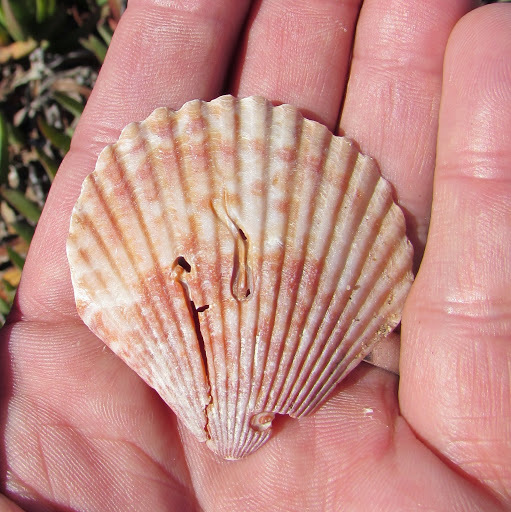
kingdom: Animalia
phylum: Mollusca
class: Bivalvia
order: Pectinida
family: Pectinidae
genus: Argopecten
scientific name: Argopecten ventricosus
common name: Catarina scallop
